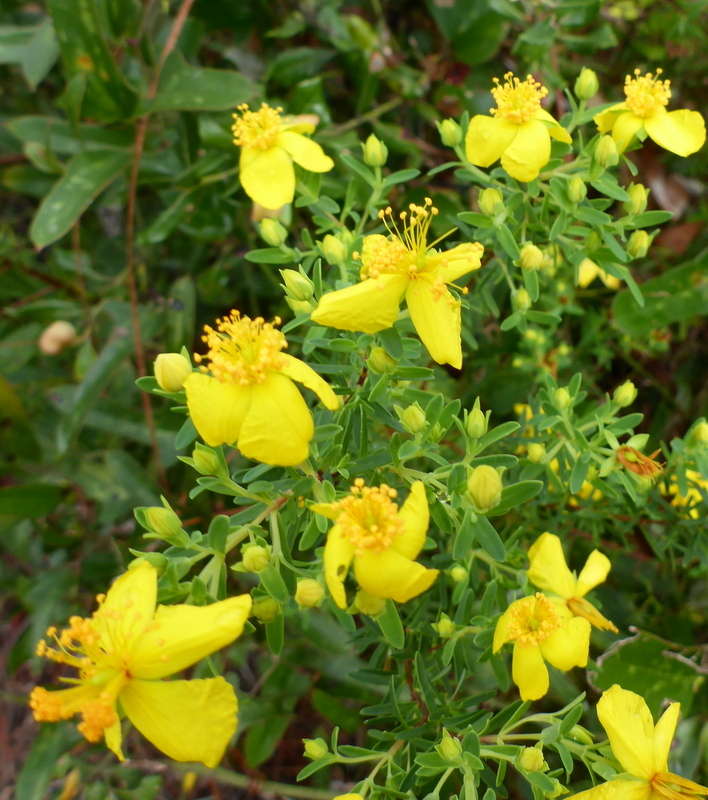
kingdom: Plantae
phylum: Tracheophyta
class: Magnoliopsida
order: Malpighiales
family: Hypericaceae
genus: Hypericum
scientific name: Hypericum microsepalum
